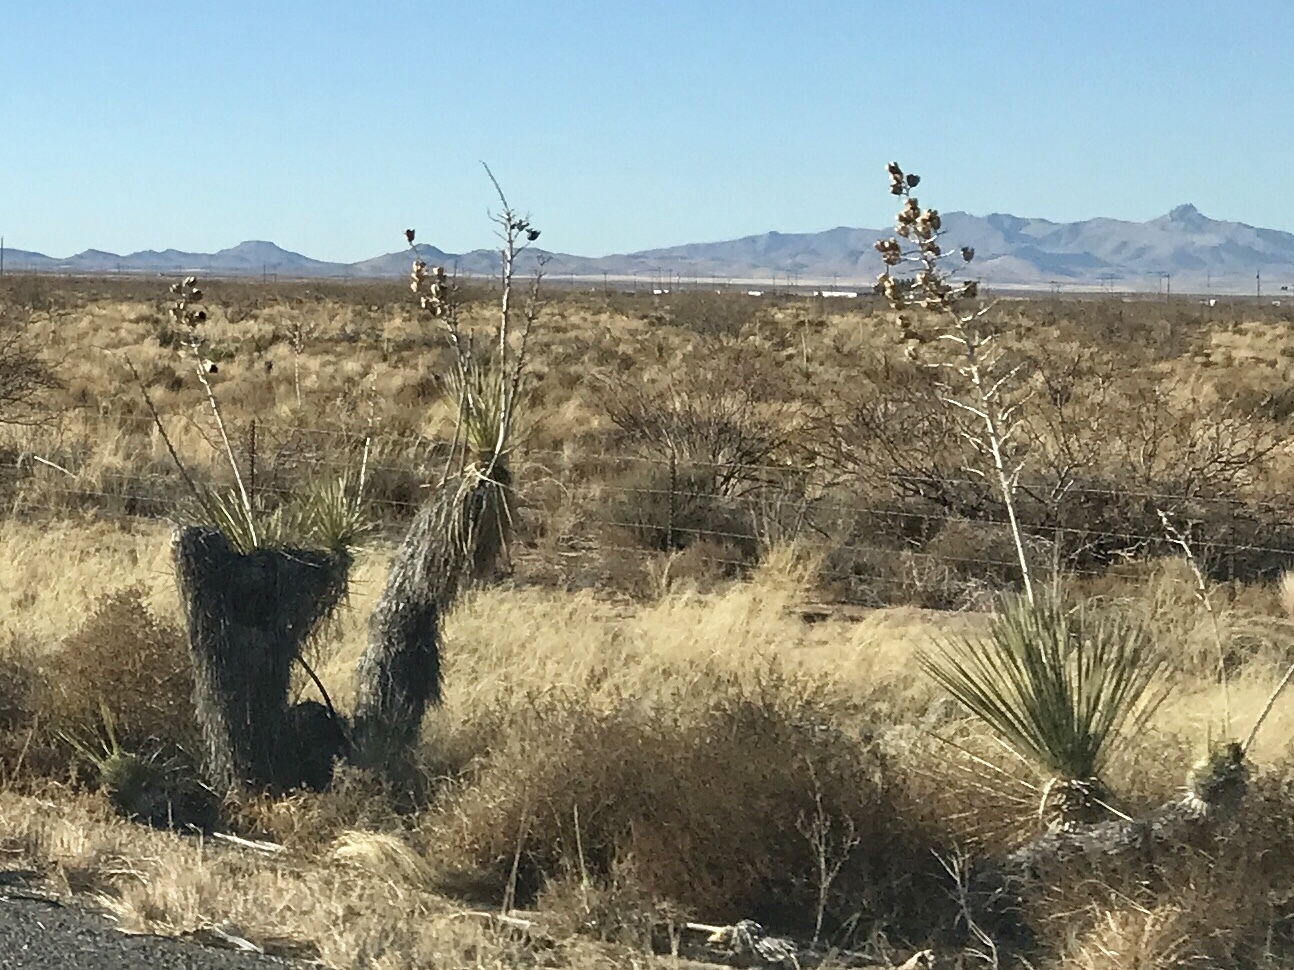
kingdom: Plantae
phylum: Tracheophyta
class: Liliopsida
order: Asparagales
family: Asparagaceae
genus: Yucca
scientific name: Yucca elata
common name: Palmella
